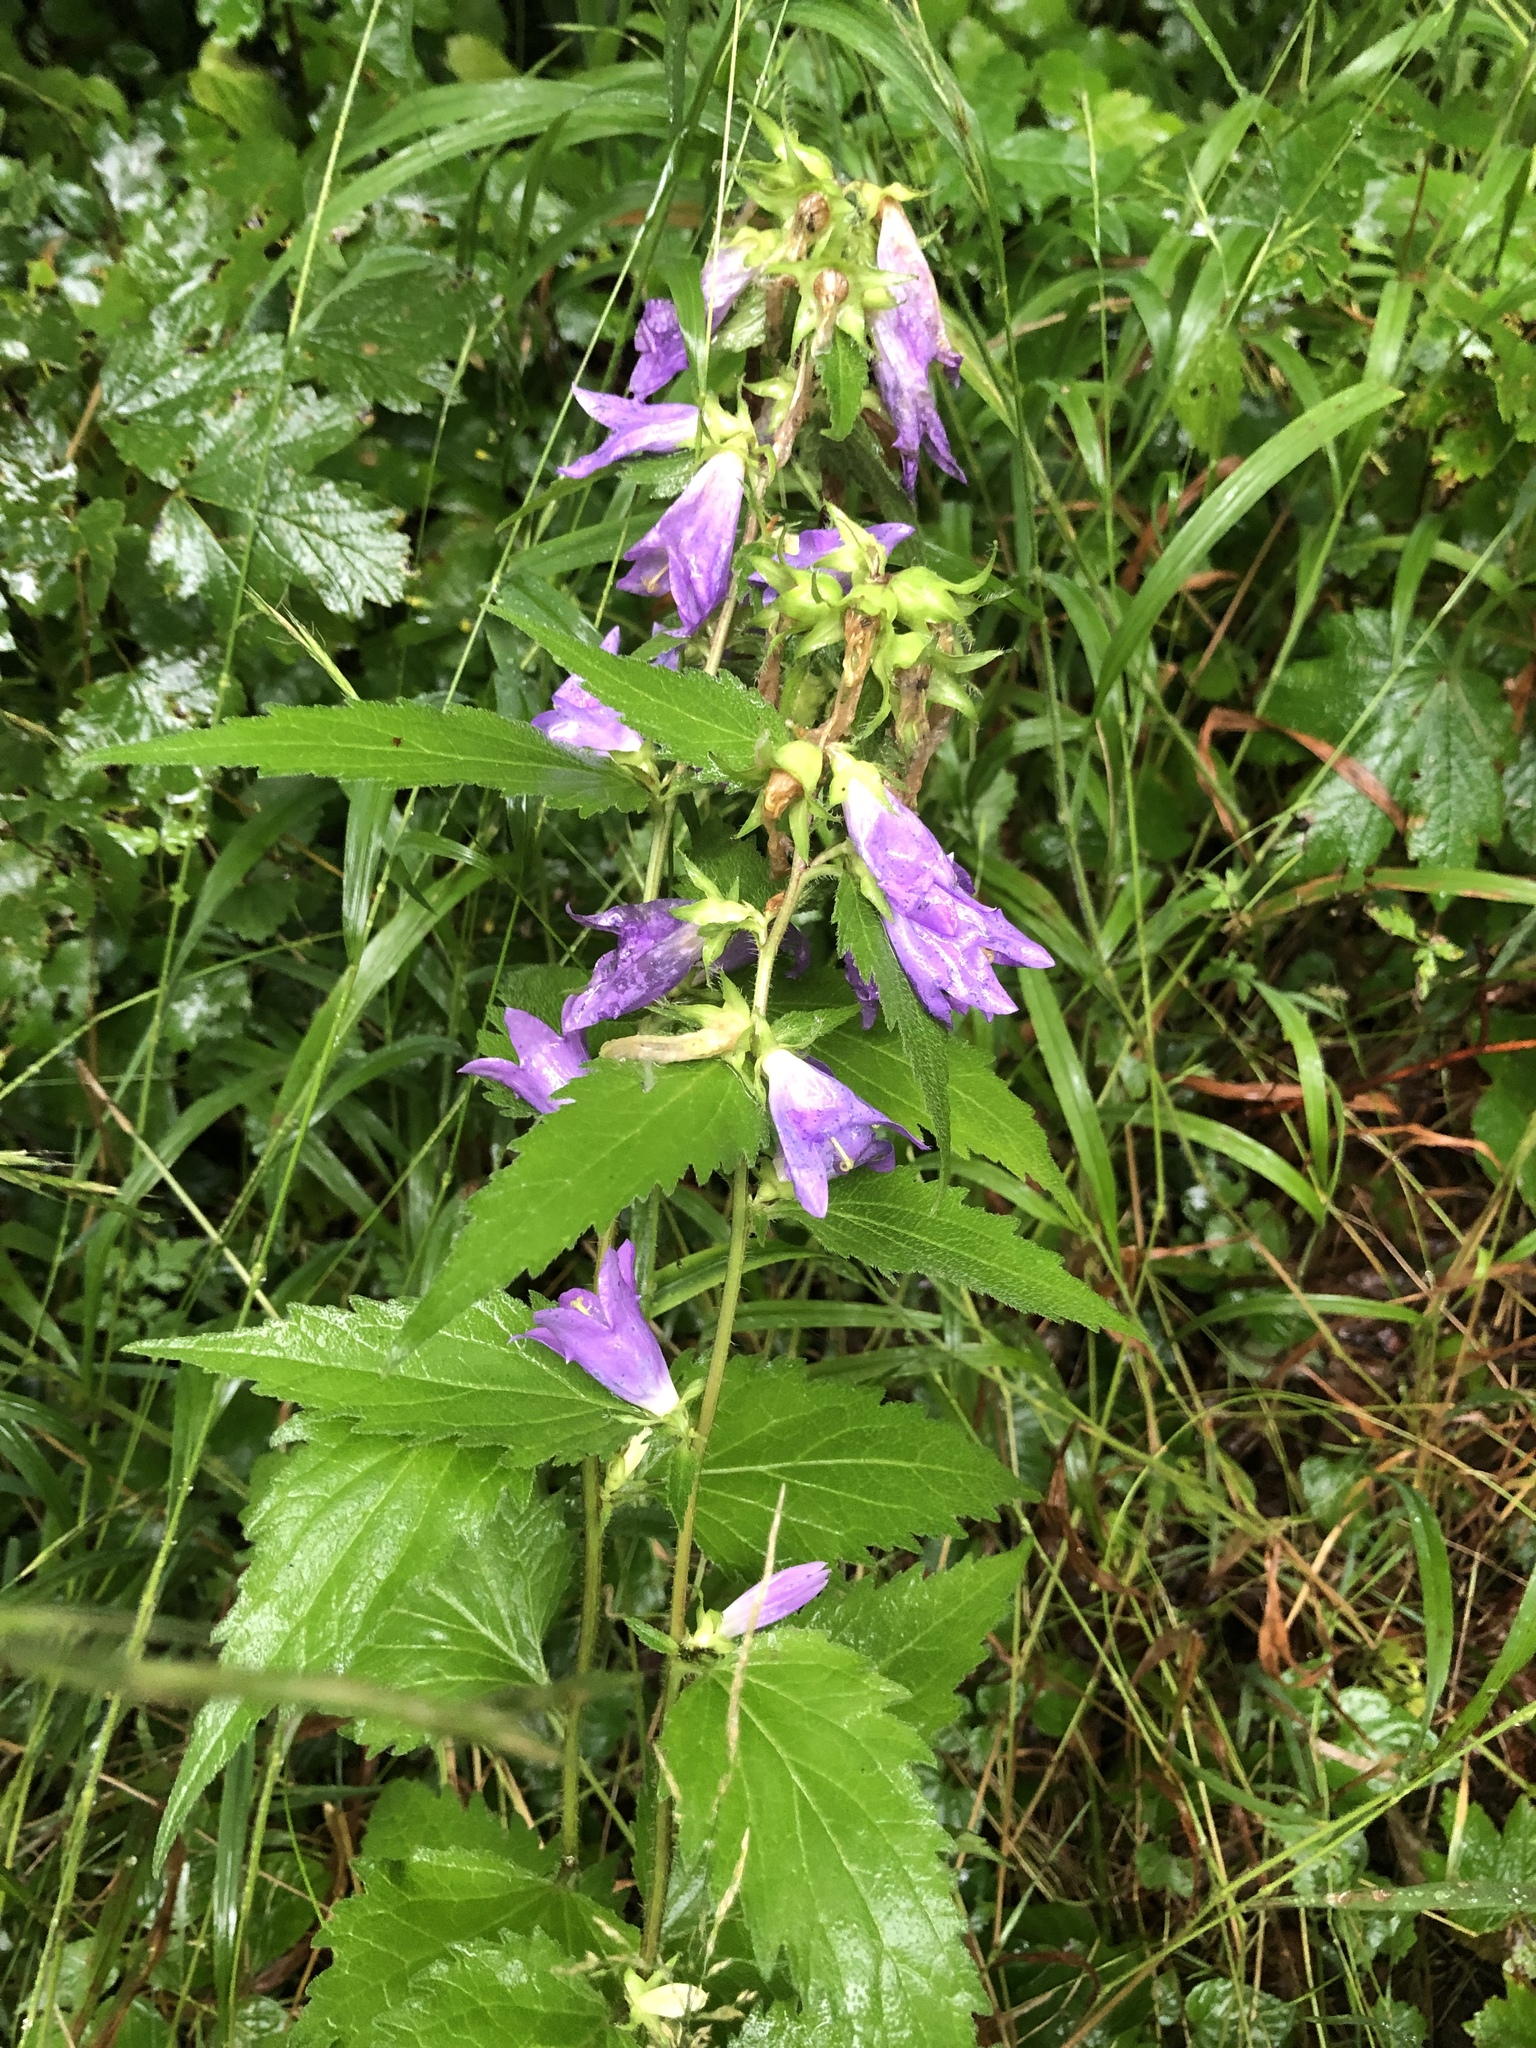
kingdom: Plantae
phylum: Tracheophyta
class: Magnoliopsida
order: Asterales
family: Campanulaceae
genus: Campanula
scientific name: Campanula trachelium
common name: Nettle-leaved bellflower
